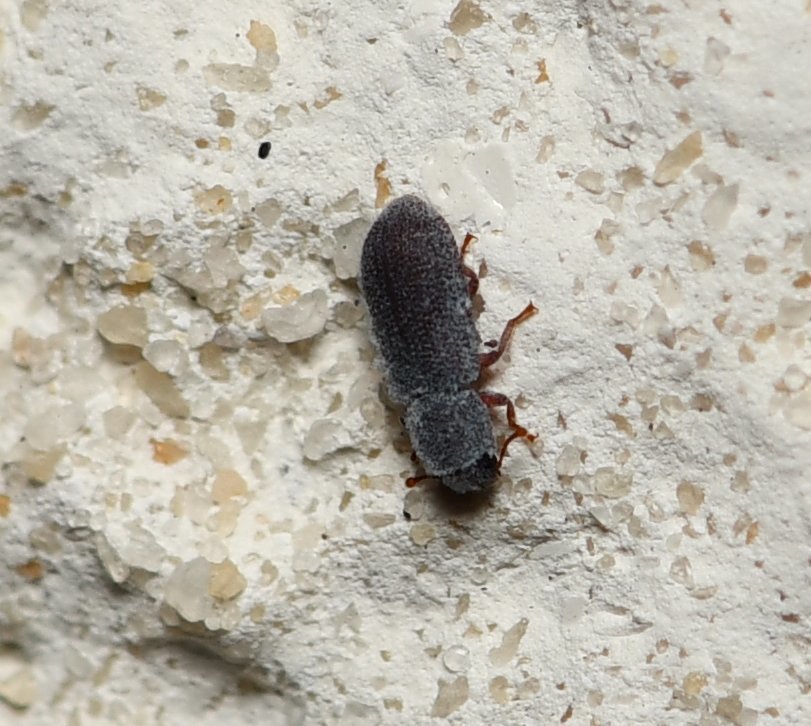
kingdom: Animalia
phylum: Arthropoda
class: Insecta
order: Coleoptera
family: Zopheridae
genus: Endeitoma
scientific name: Endeitoma granulata
